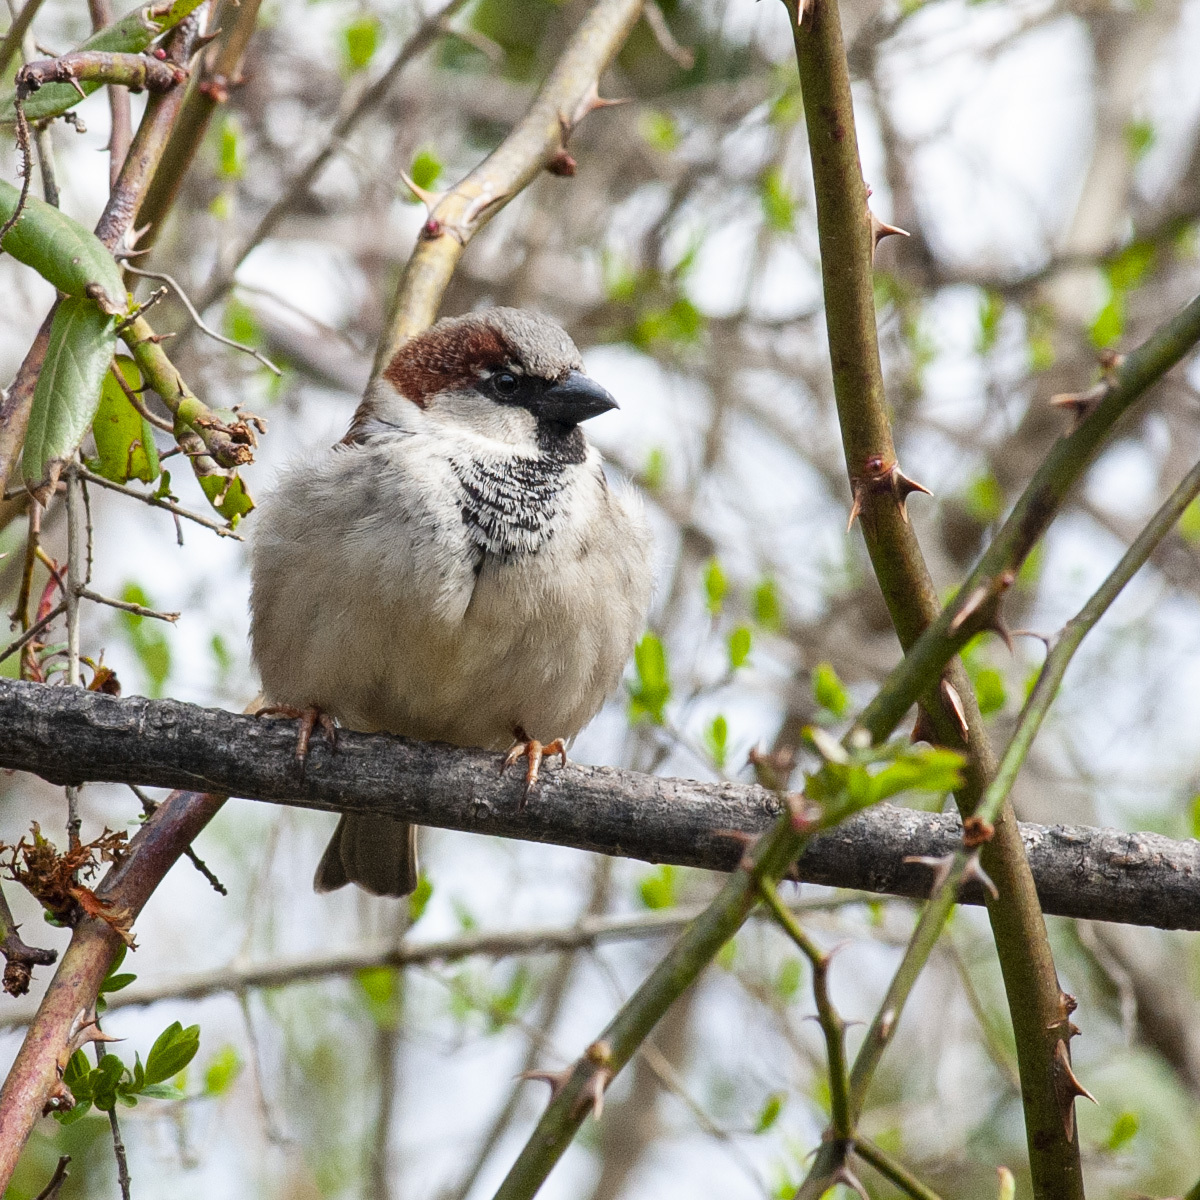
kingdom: Animalia
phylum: Chordata
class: Aves
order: Passeriformes
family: Passeridae
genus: Passer
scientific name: Passer domesticus
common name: House sparrow
